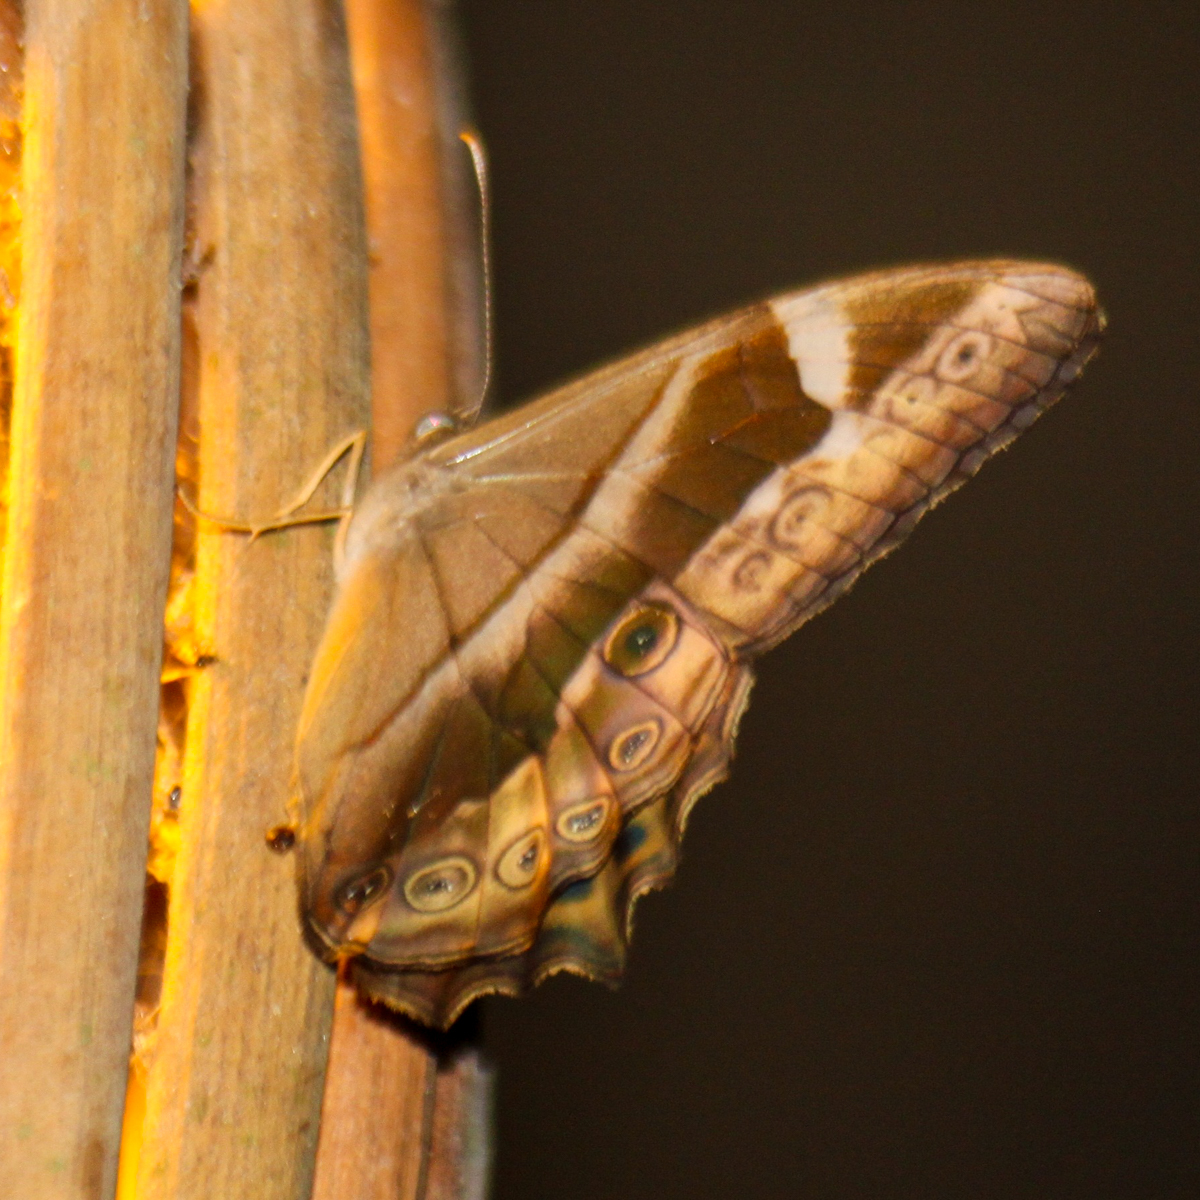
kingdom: Animalia
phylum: Arthropoda
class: Insecta
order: Lepidoptera
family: Nymphalidae
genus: Lethe
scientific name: Lethe mekara
